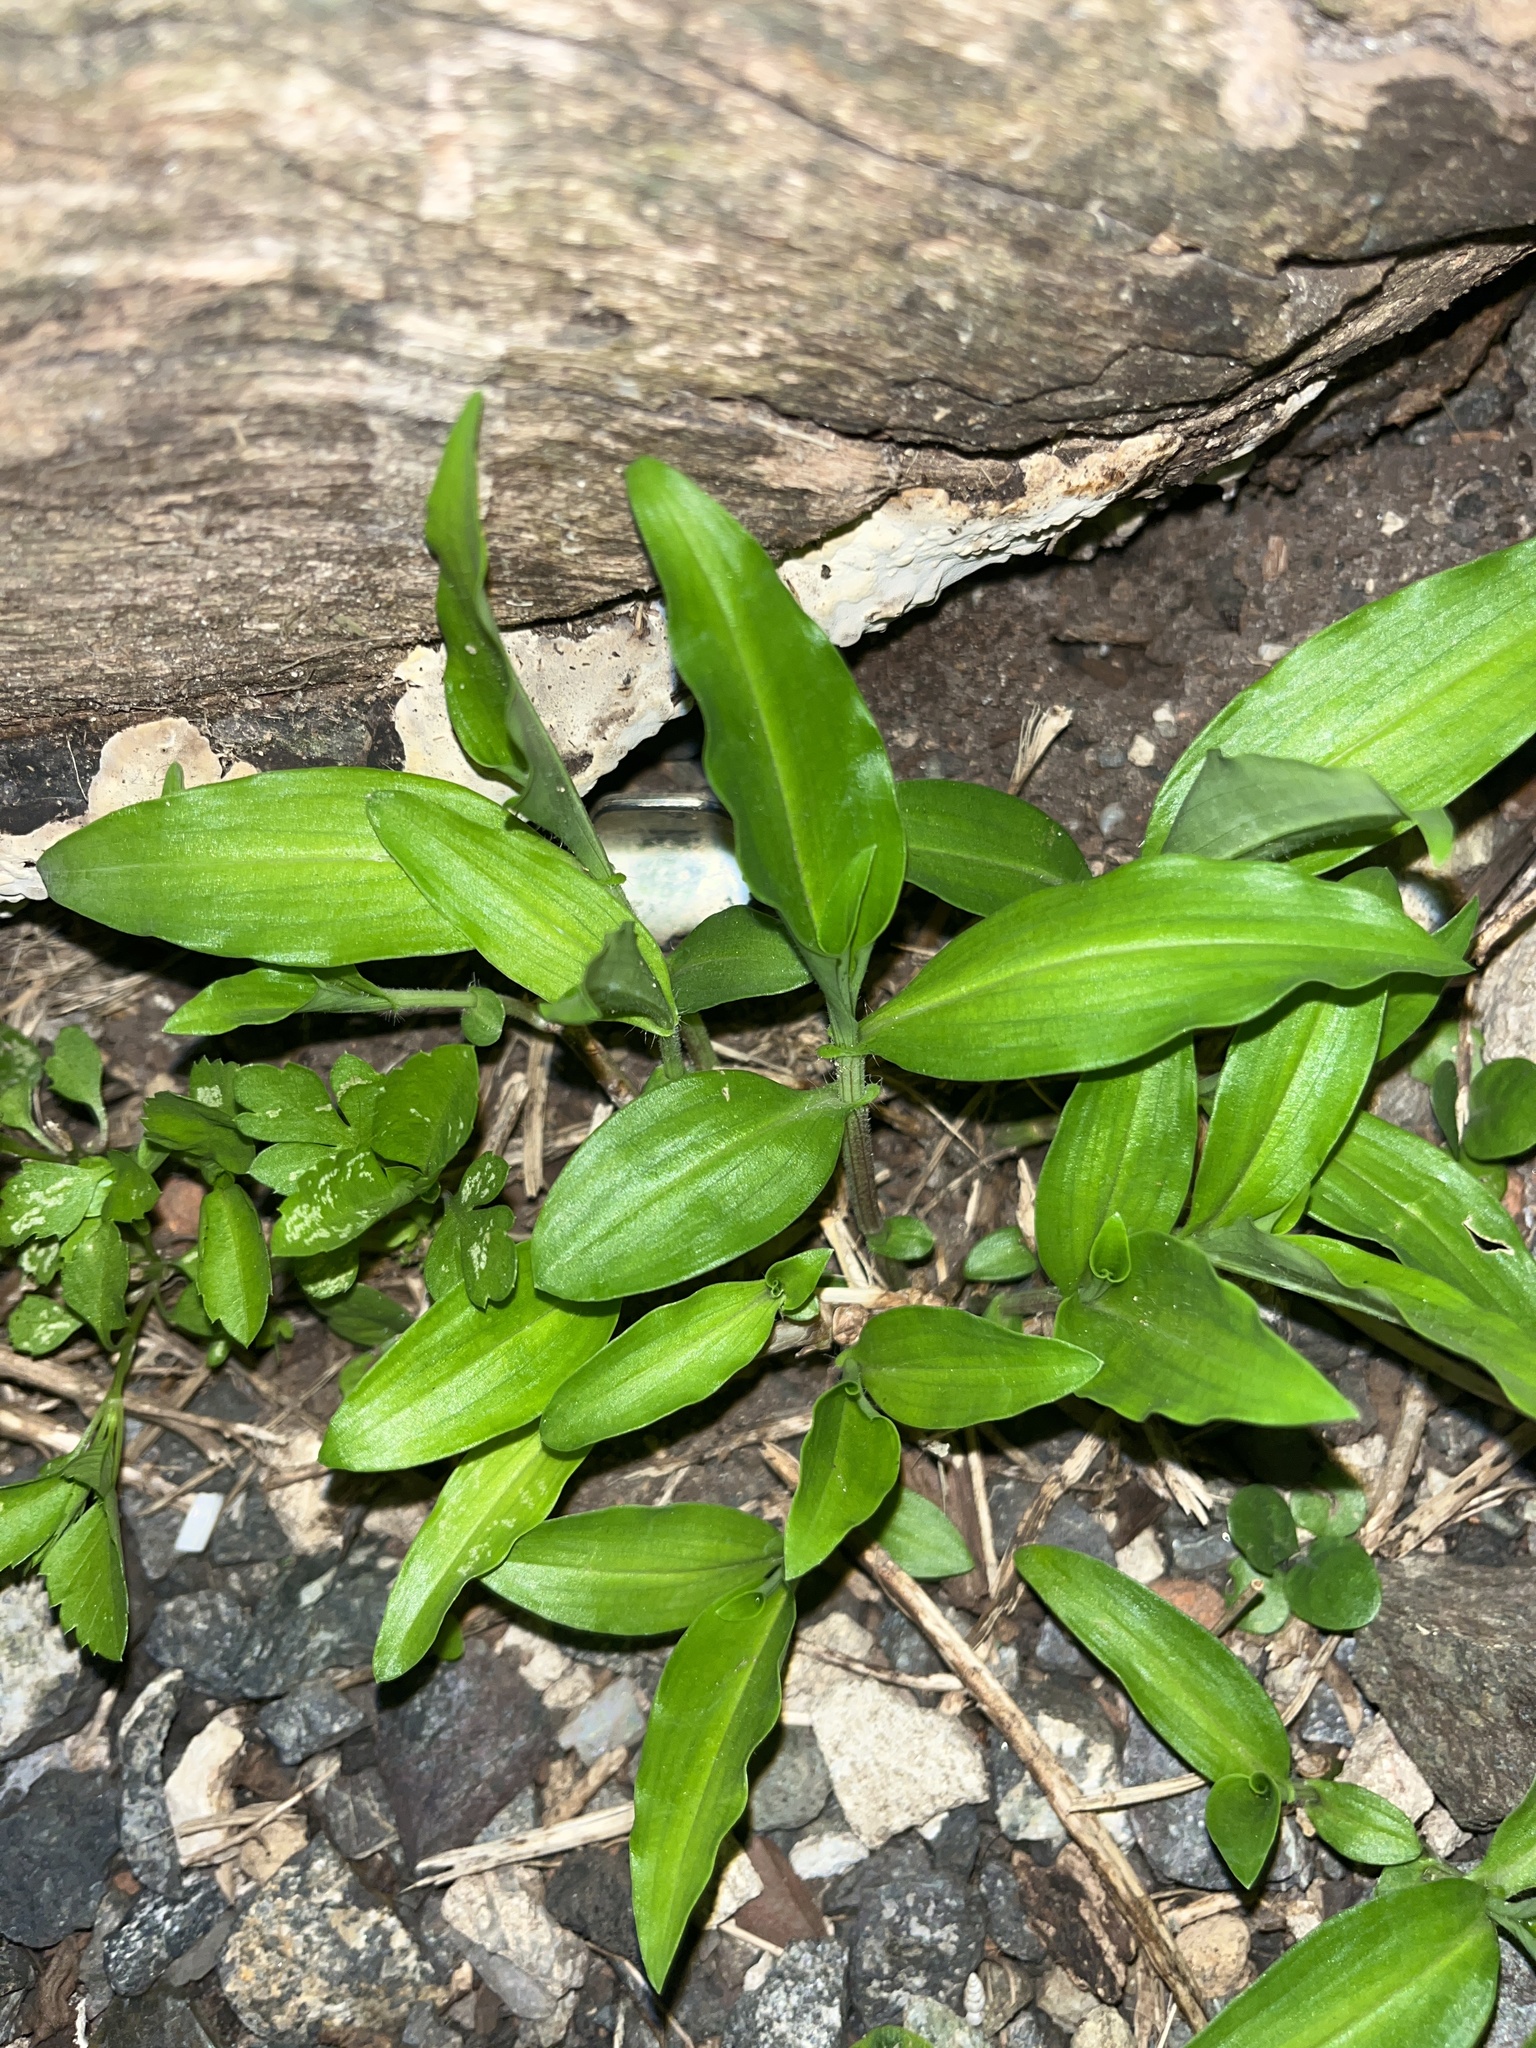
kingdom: Plantae
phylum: Tracheophyta
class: Liliopsida
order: Commelinales
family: Commelinaceae
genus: Commelina
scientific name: Commelina erecta
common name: Blousel blommetjie
